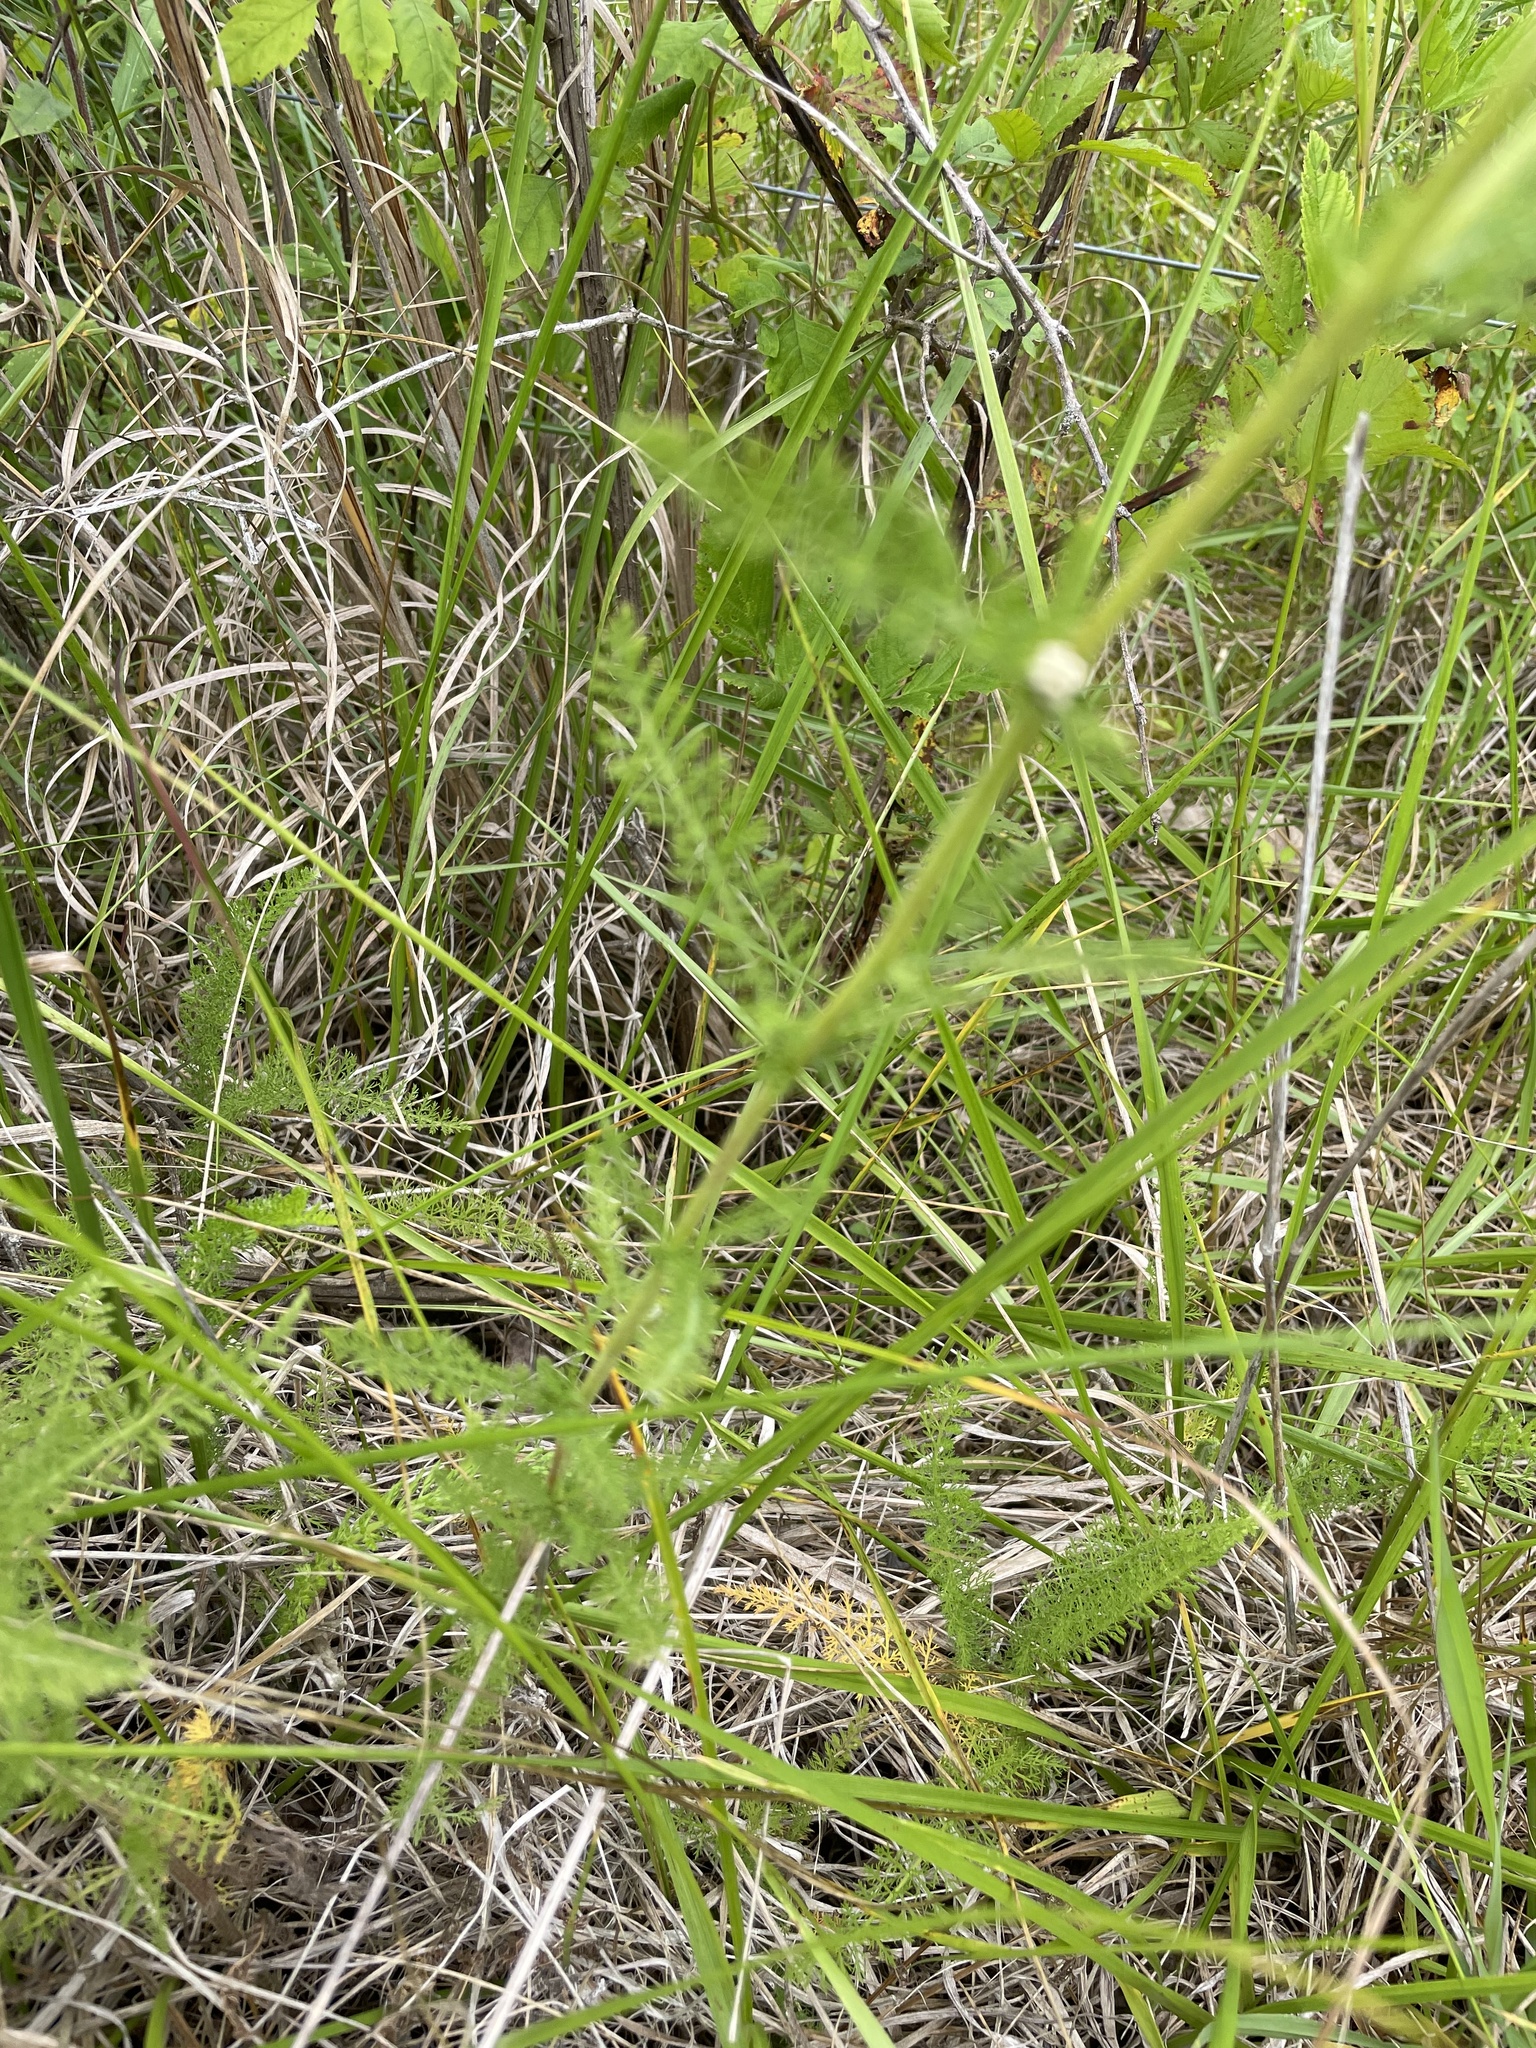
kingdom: Plantae
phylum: Tracheophyta
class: Magnoliopsida
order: Asterales
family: Asteraceae
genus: Achillea
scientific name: Achillea millefolium
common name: Yarrow
